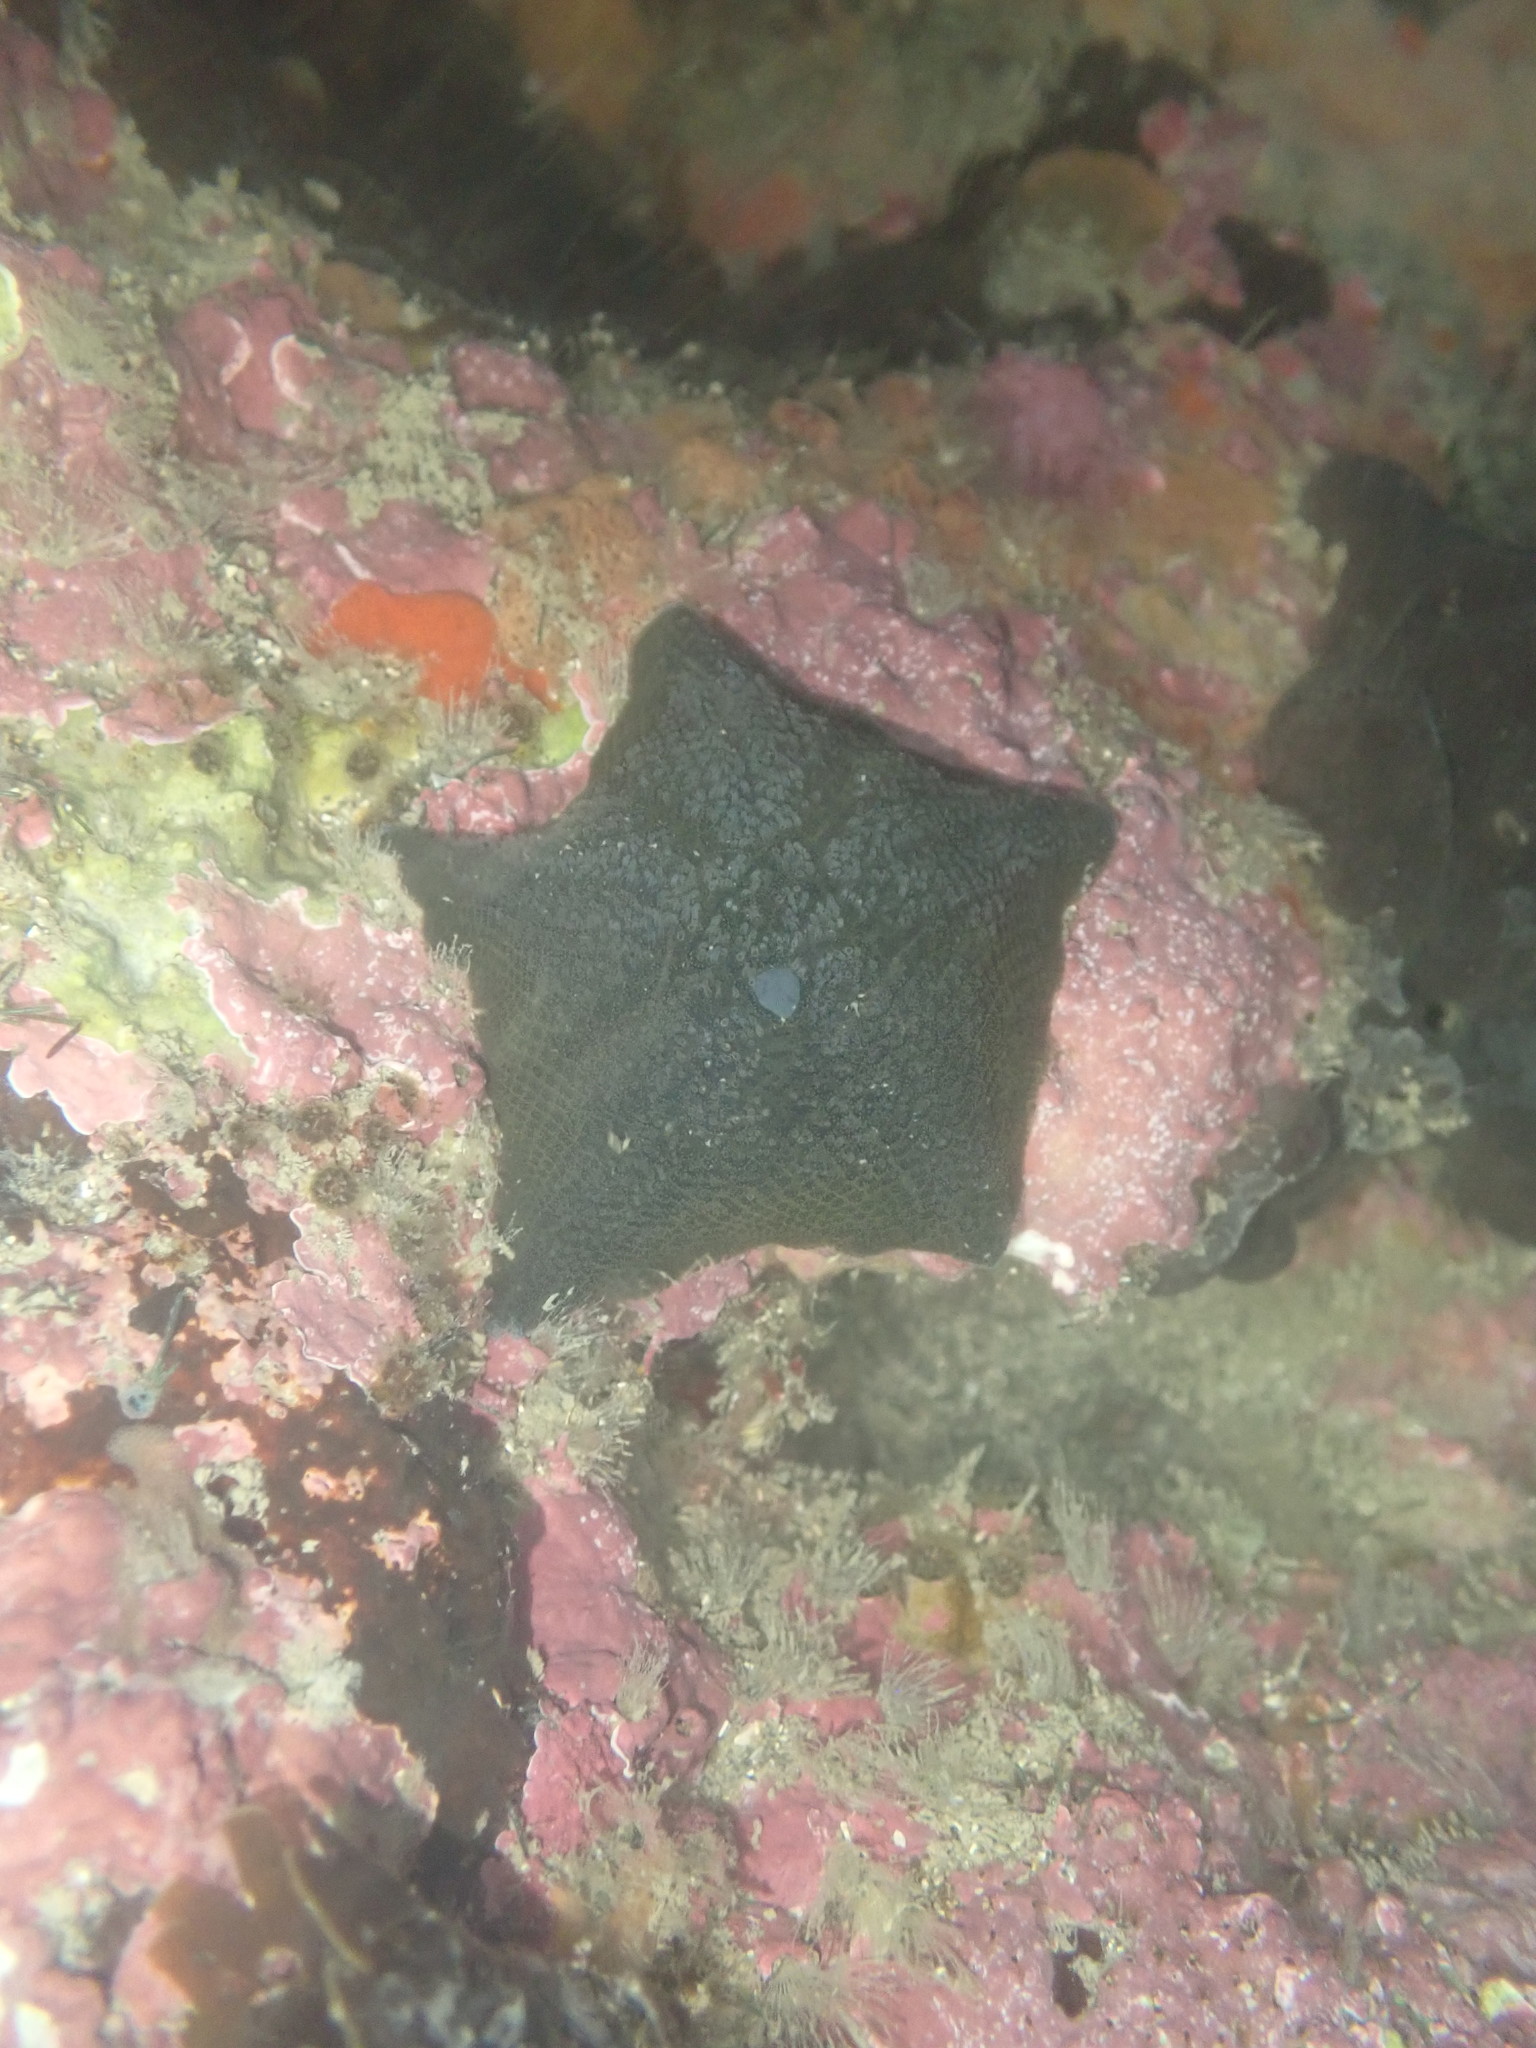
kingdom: Animalia
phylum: Echinodermata
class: Asteroidea
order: Valvatida
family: Asterinidae
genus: Patiriella
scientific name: Patiriella regularis
